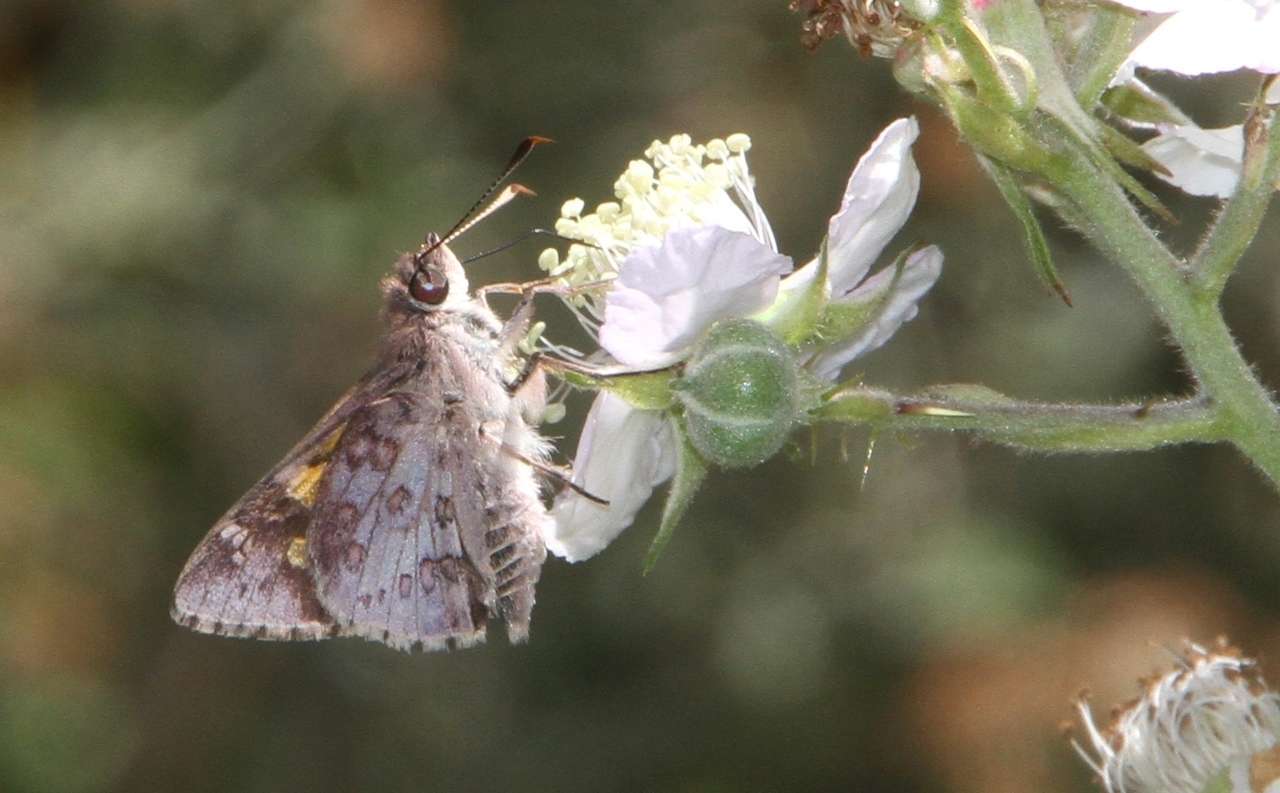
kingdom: Animalia
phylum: Arthropoda
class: Insecta
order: Lepidoptera
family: Hesperiidae
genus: Trapezites
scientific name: Trapezites phigalioides
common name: Montane ochre
